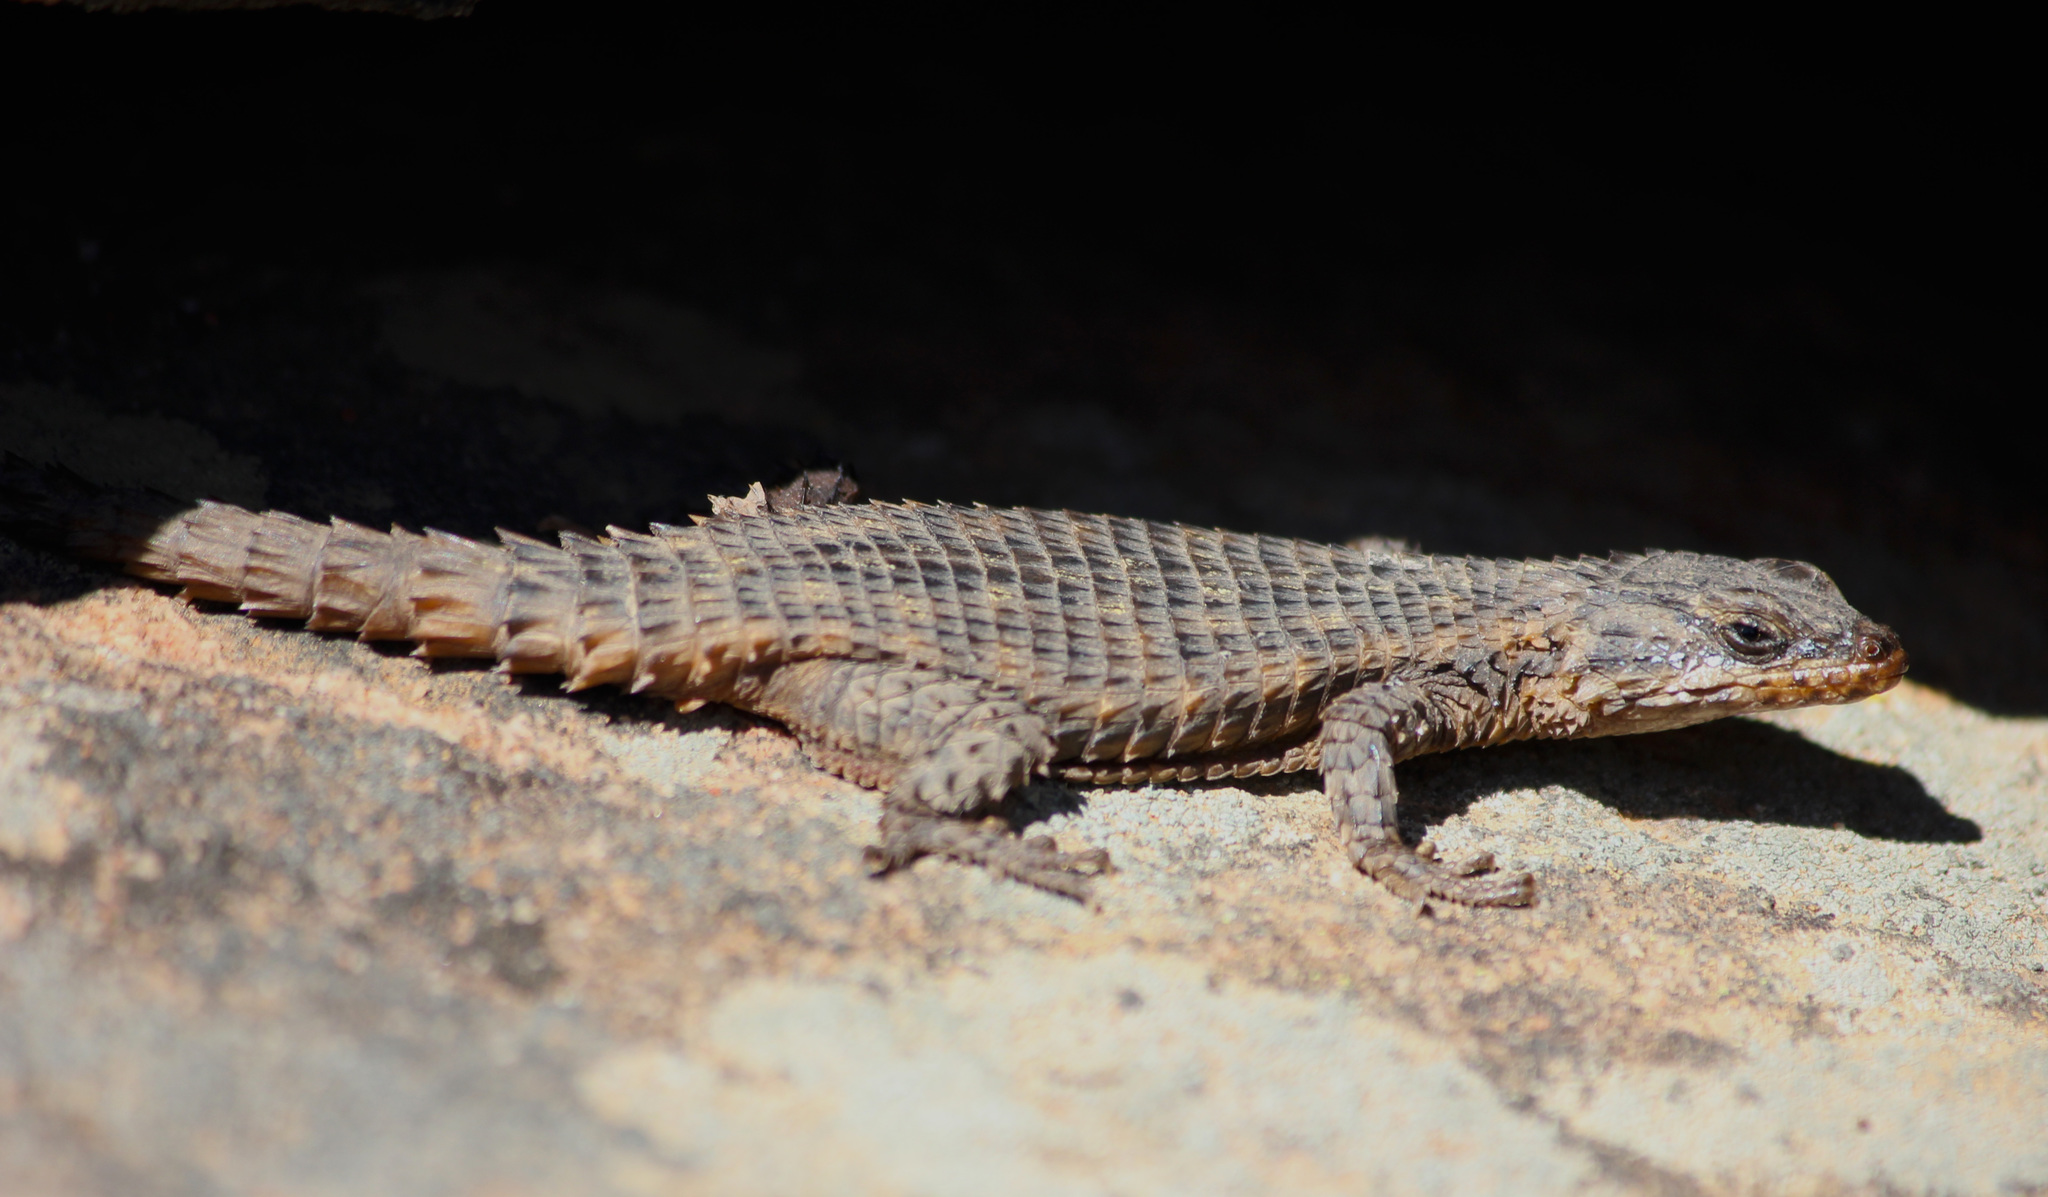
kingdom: Animalia
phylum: Chordata
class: Squamata
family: Cordylidae
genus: Cordylus
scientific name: Cordylus mclachlani
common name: Mclachlan's girdled lizard
